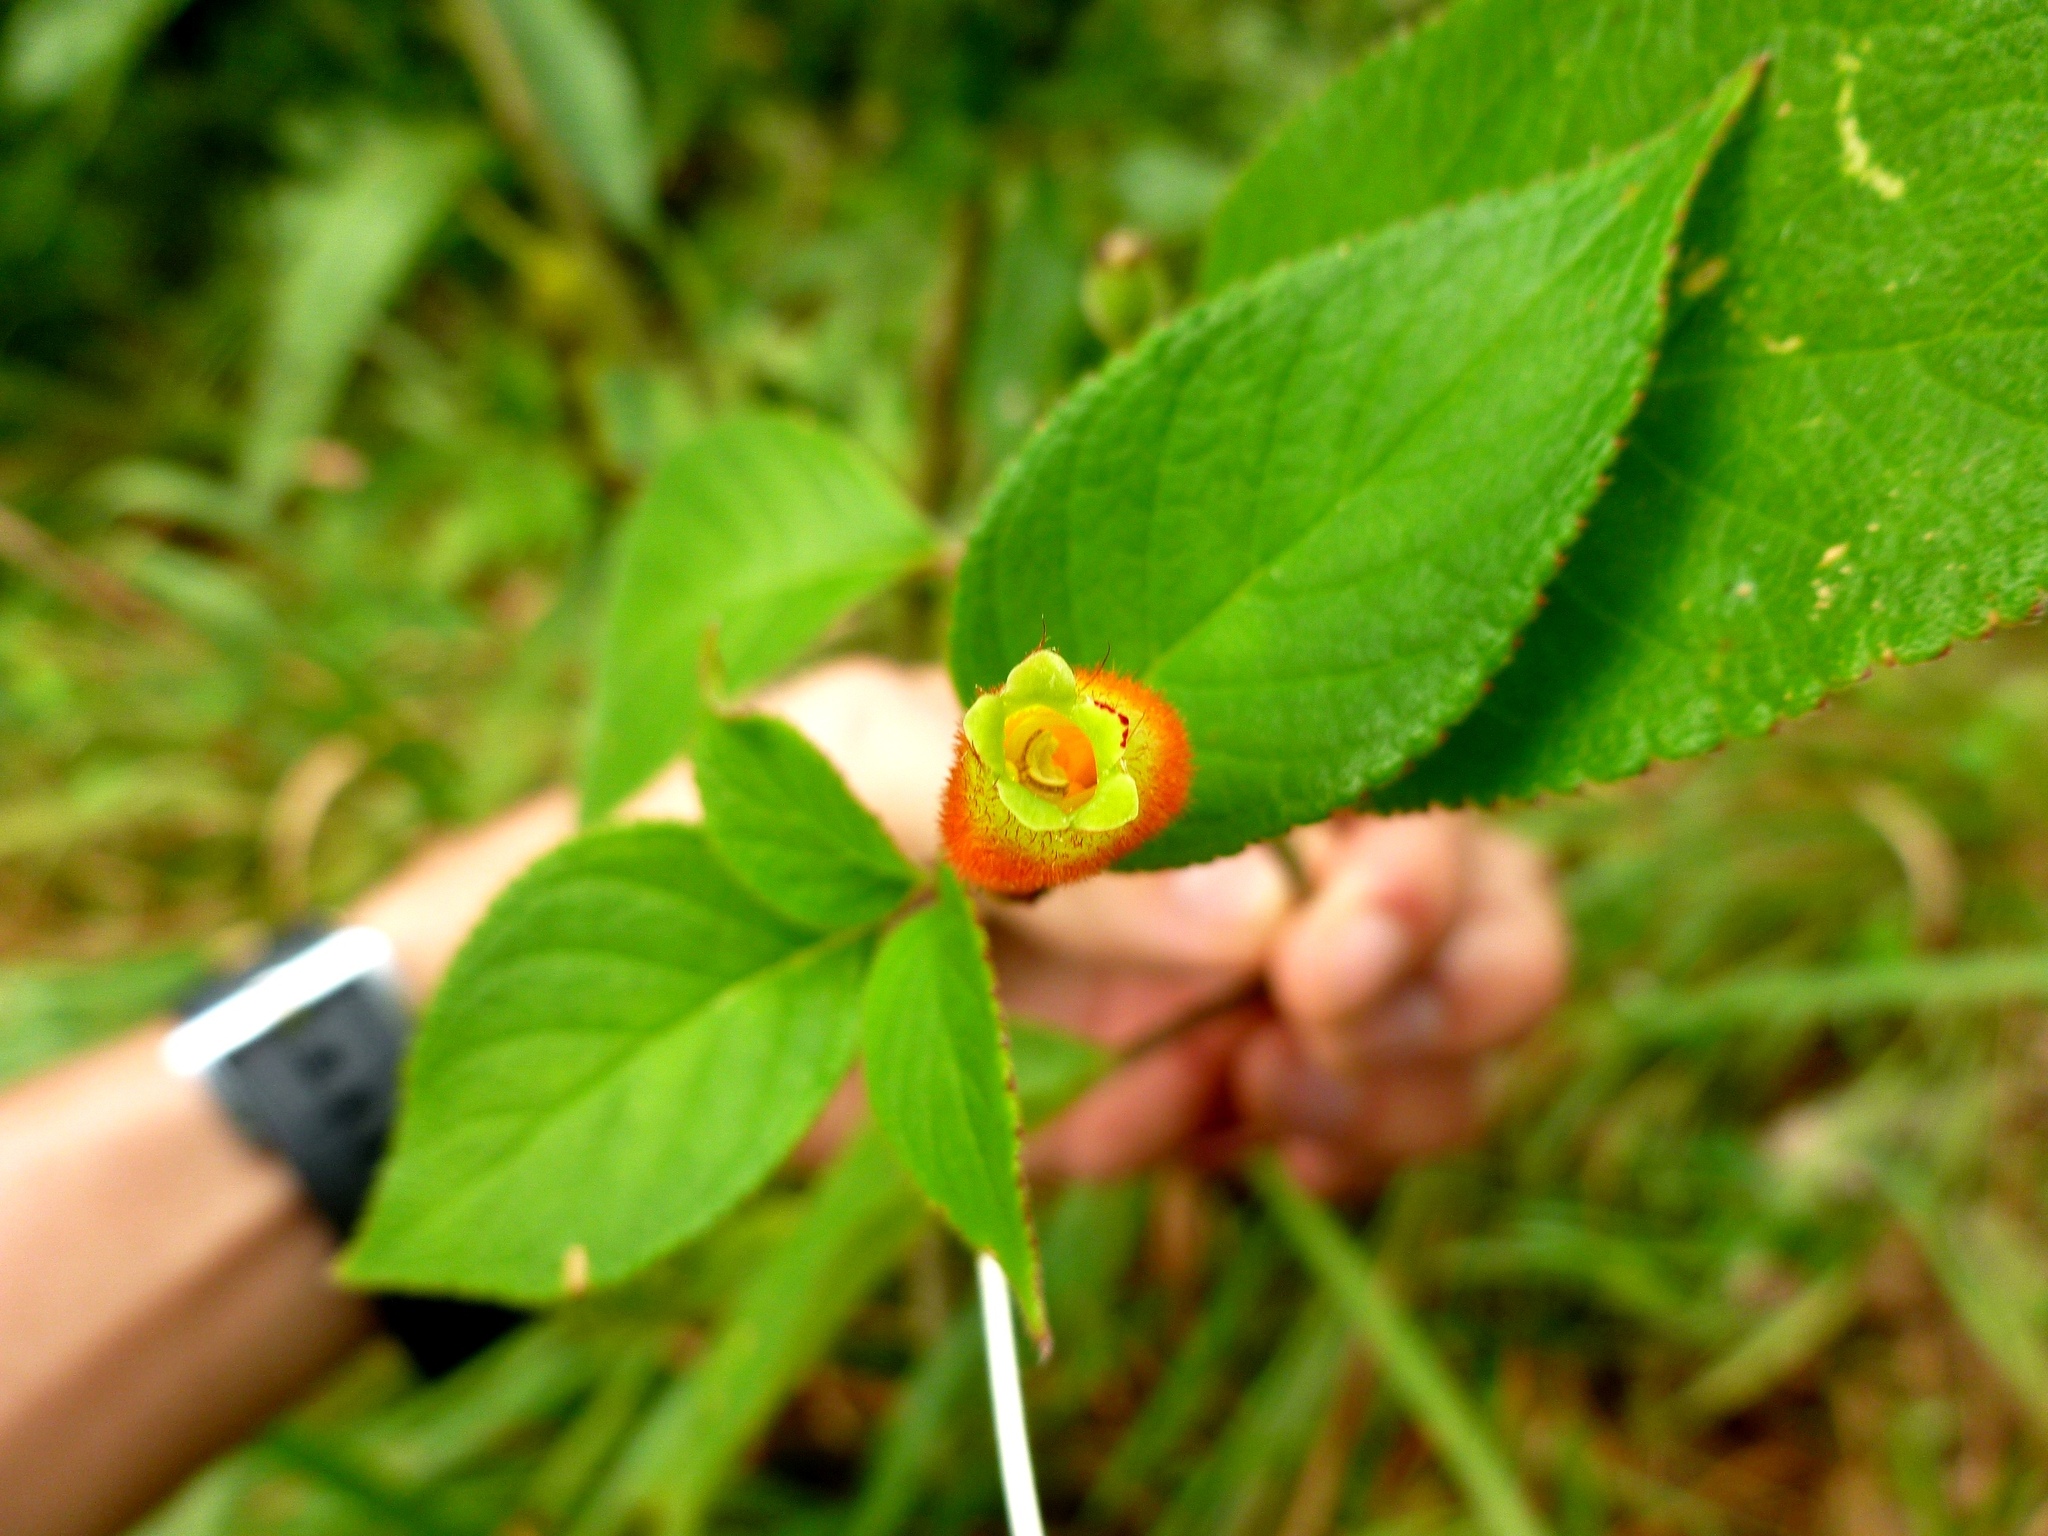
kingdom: Plantae
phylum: Tracheophyta
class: Magnoliopsida
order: Lamiales
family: Gesneriaceae
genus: Kohleria
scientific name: Kohleria tubiflora
